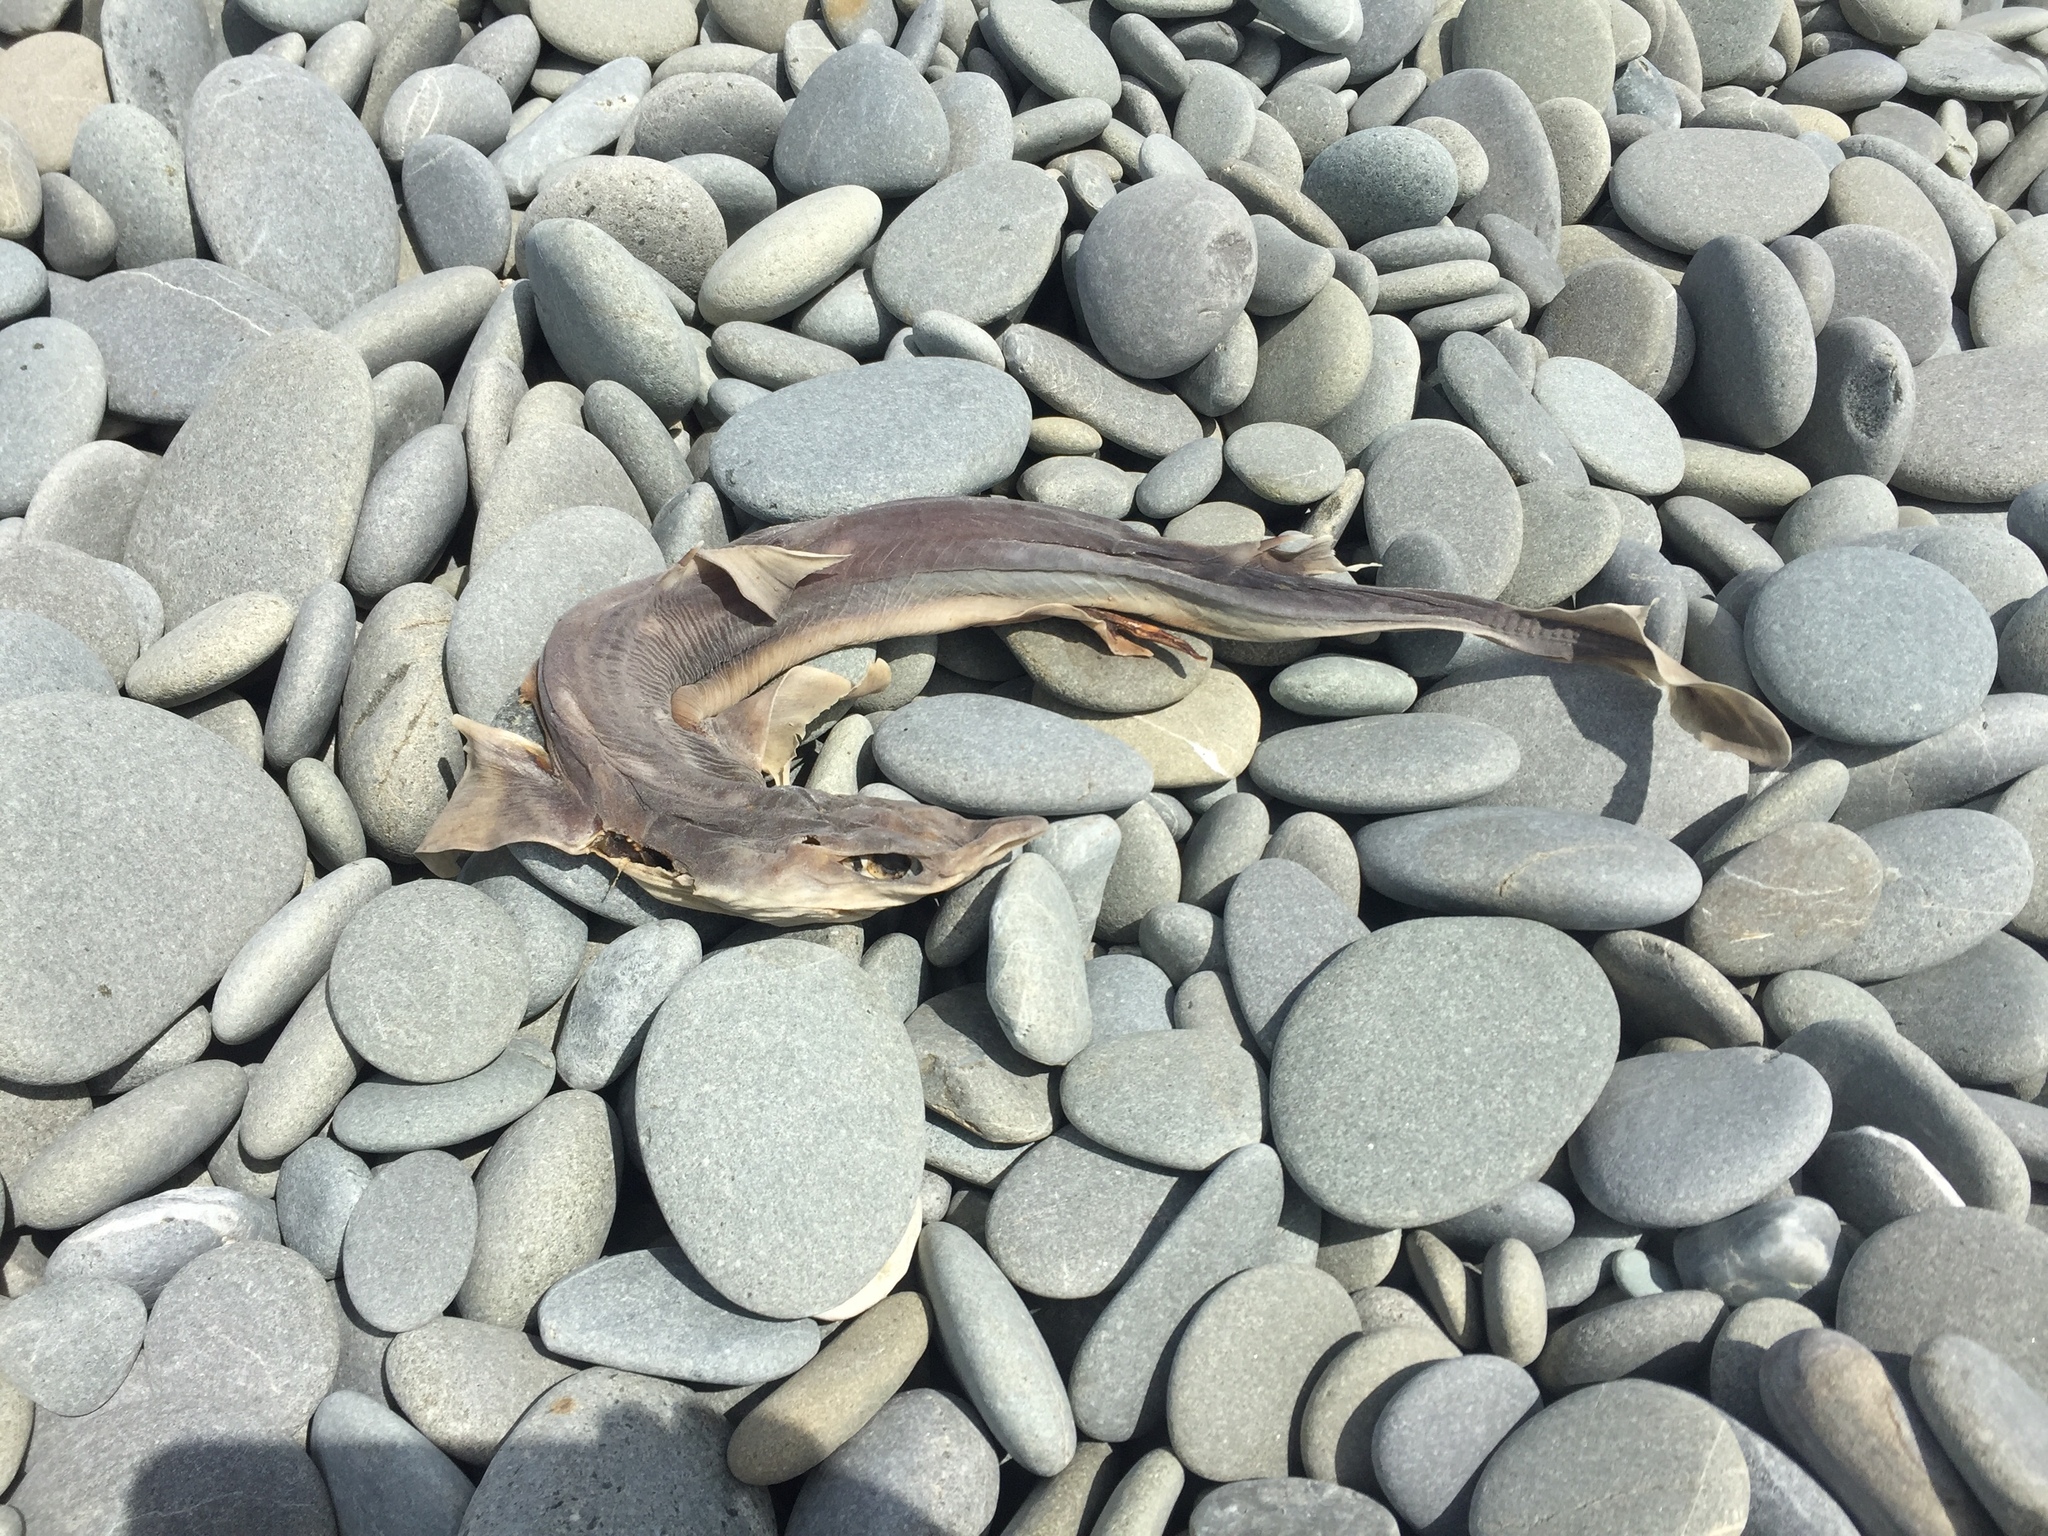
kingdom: Animalia
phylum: Chordata
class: Elasmobranchii
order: Squaliformes
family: Squalidae
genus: Squalus
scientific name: Squalus acanthias
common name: Spurdog
